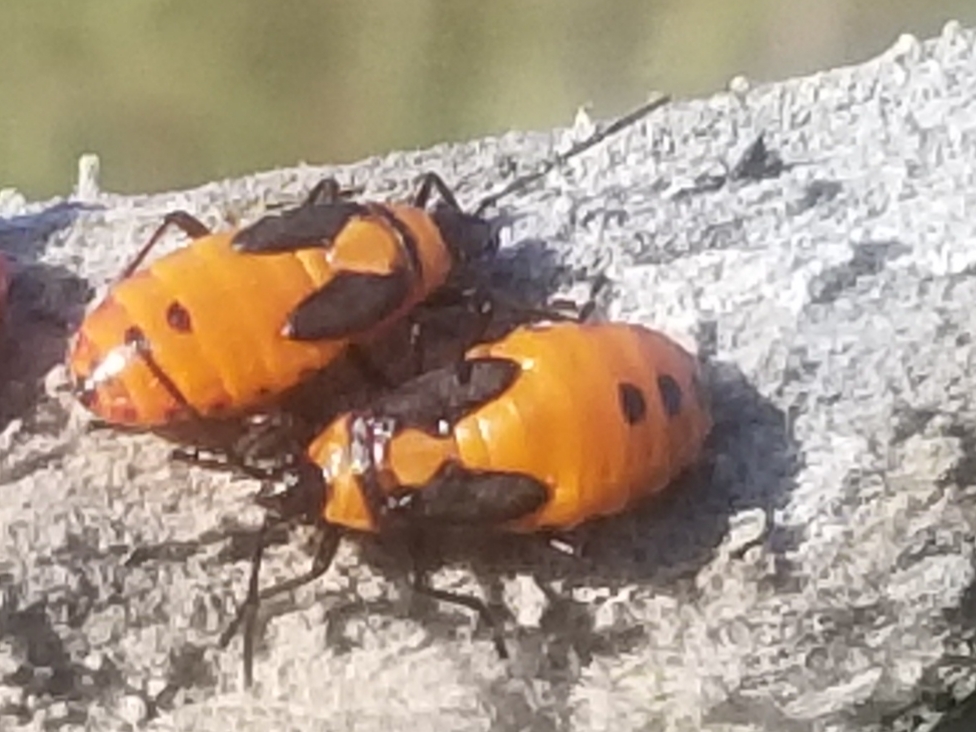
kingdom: Animalia
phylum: Arthropoda
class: Insecta
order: Hemiptera
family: Lygaeidae
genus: Oncopeltus
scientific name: Oncopeltus fasciatus
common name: Large milkweed bug
